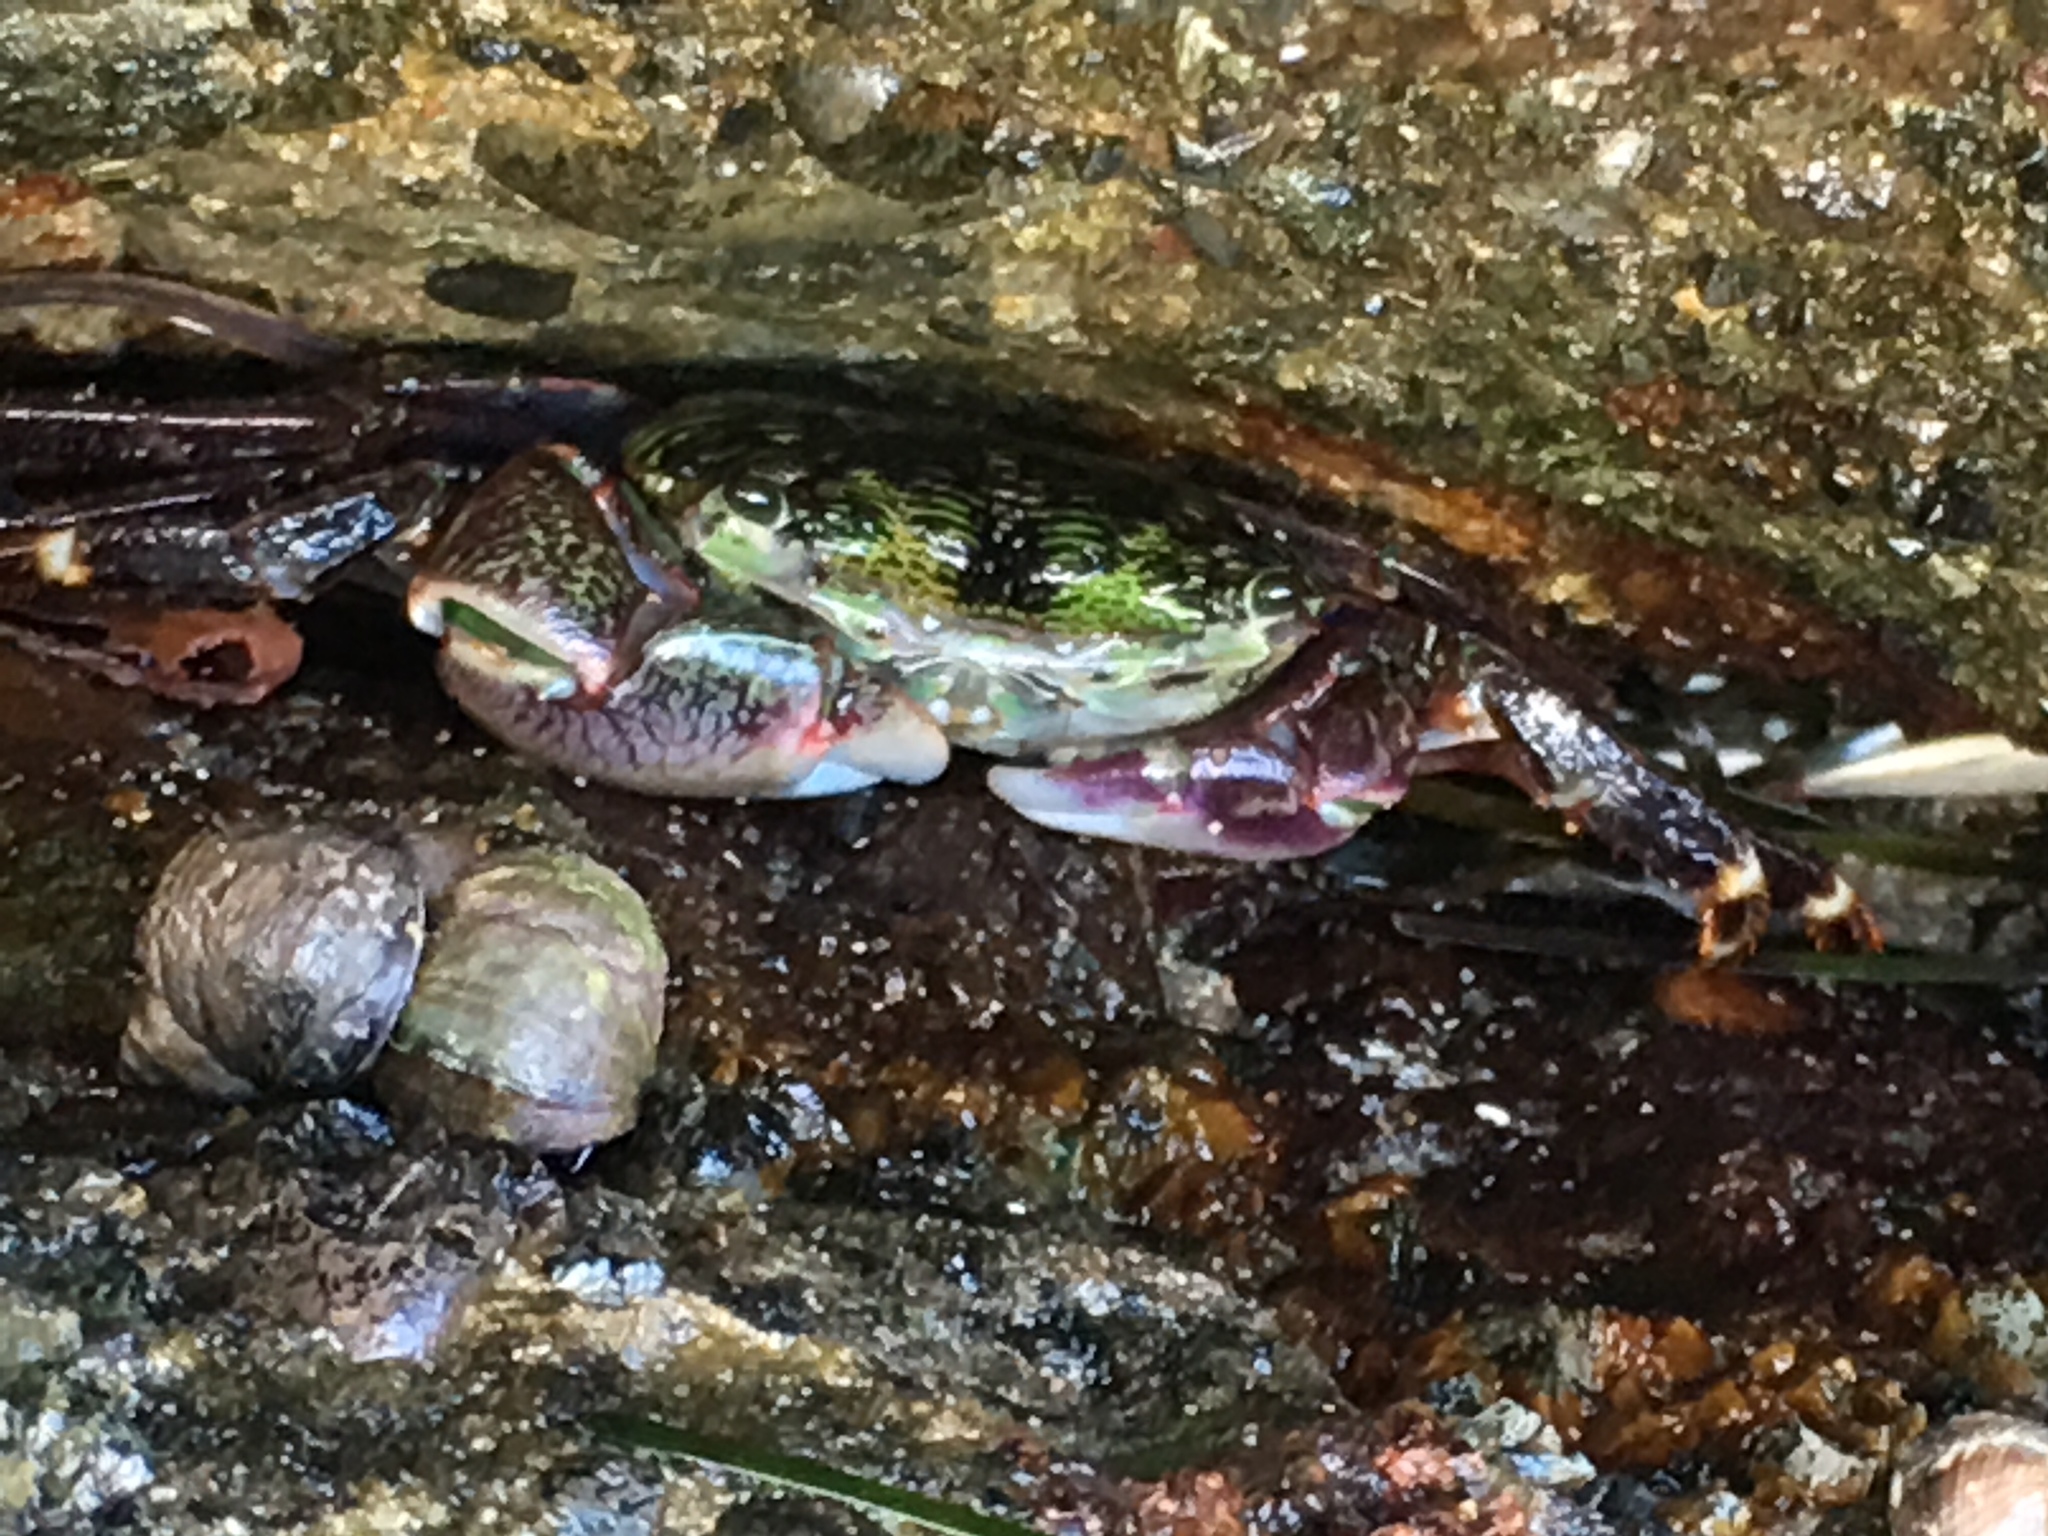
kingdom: Animalia
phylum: Arthropoda
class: Malacostraca
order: Decapoda
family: Grapsidae
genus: Pachygrapsus
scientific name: Pachygrapsus crassipes
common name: Striped shore crab
